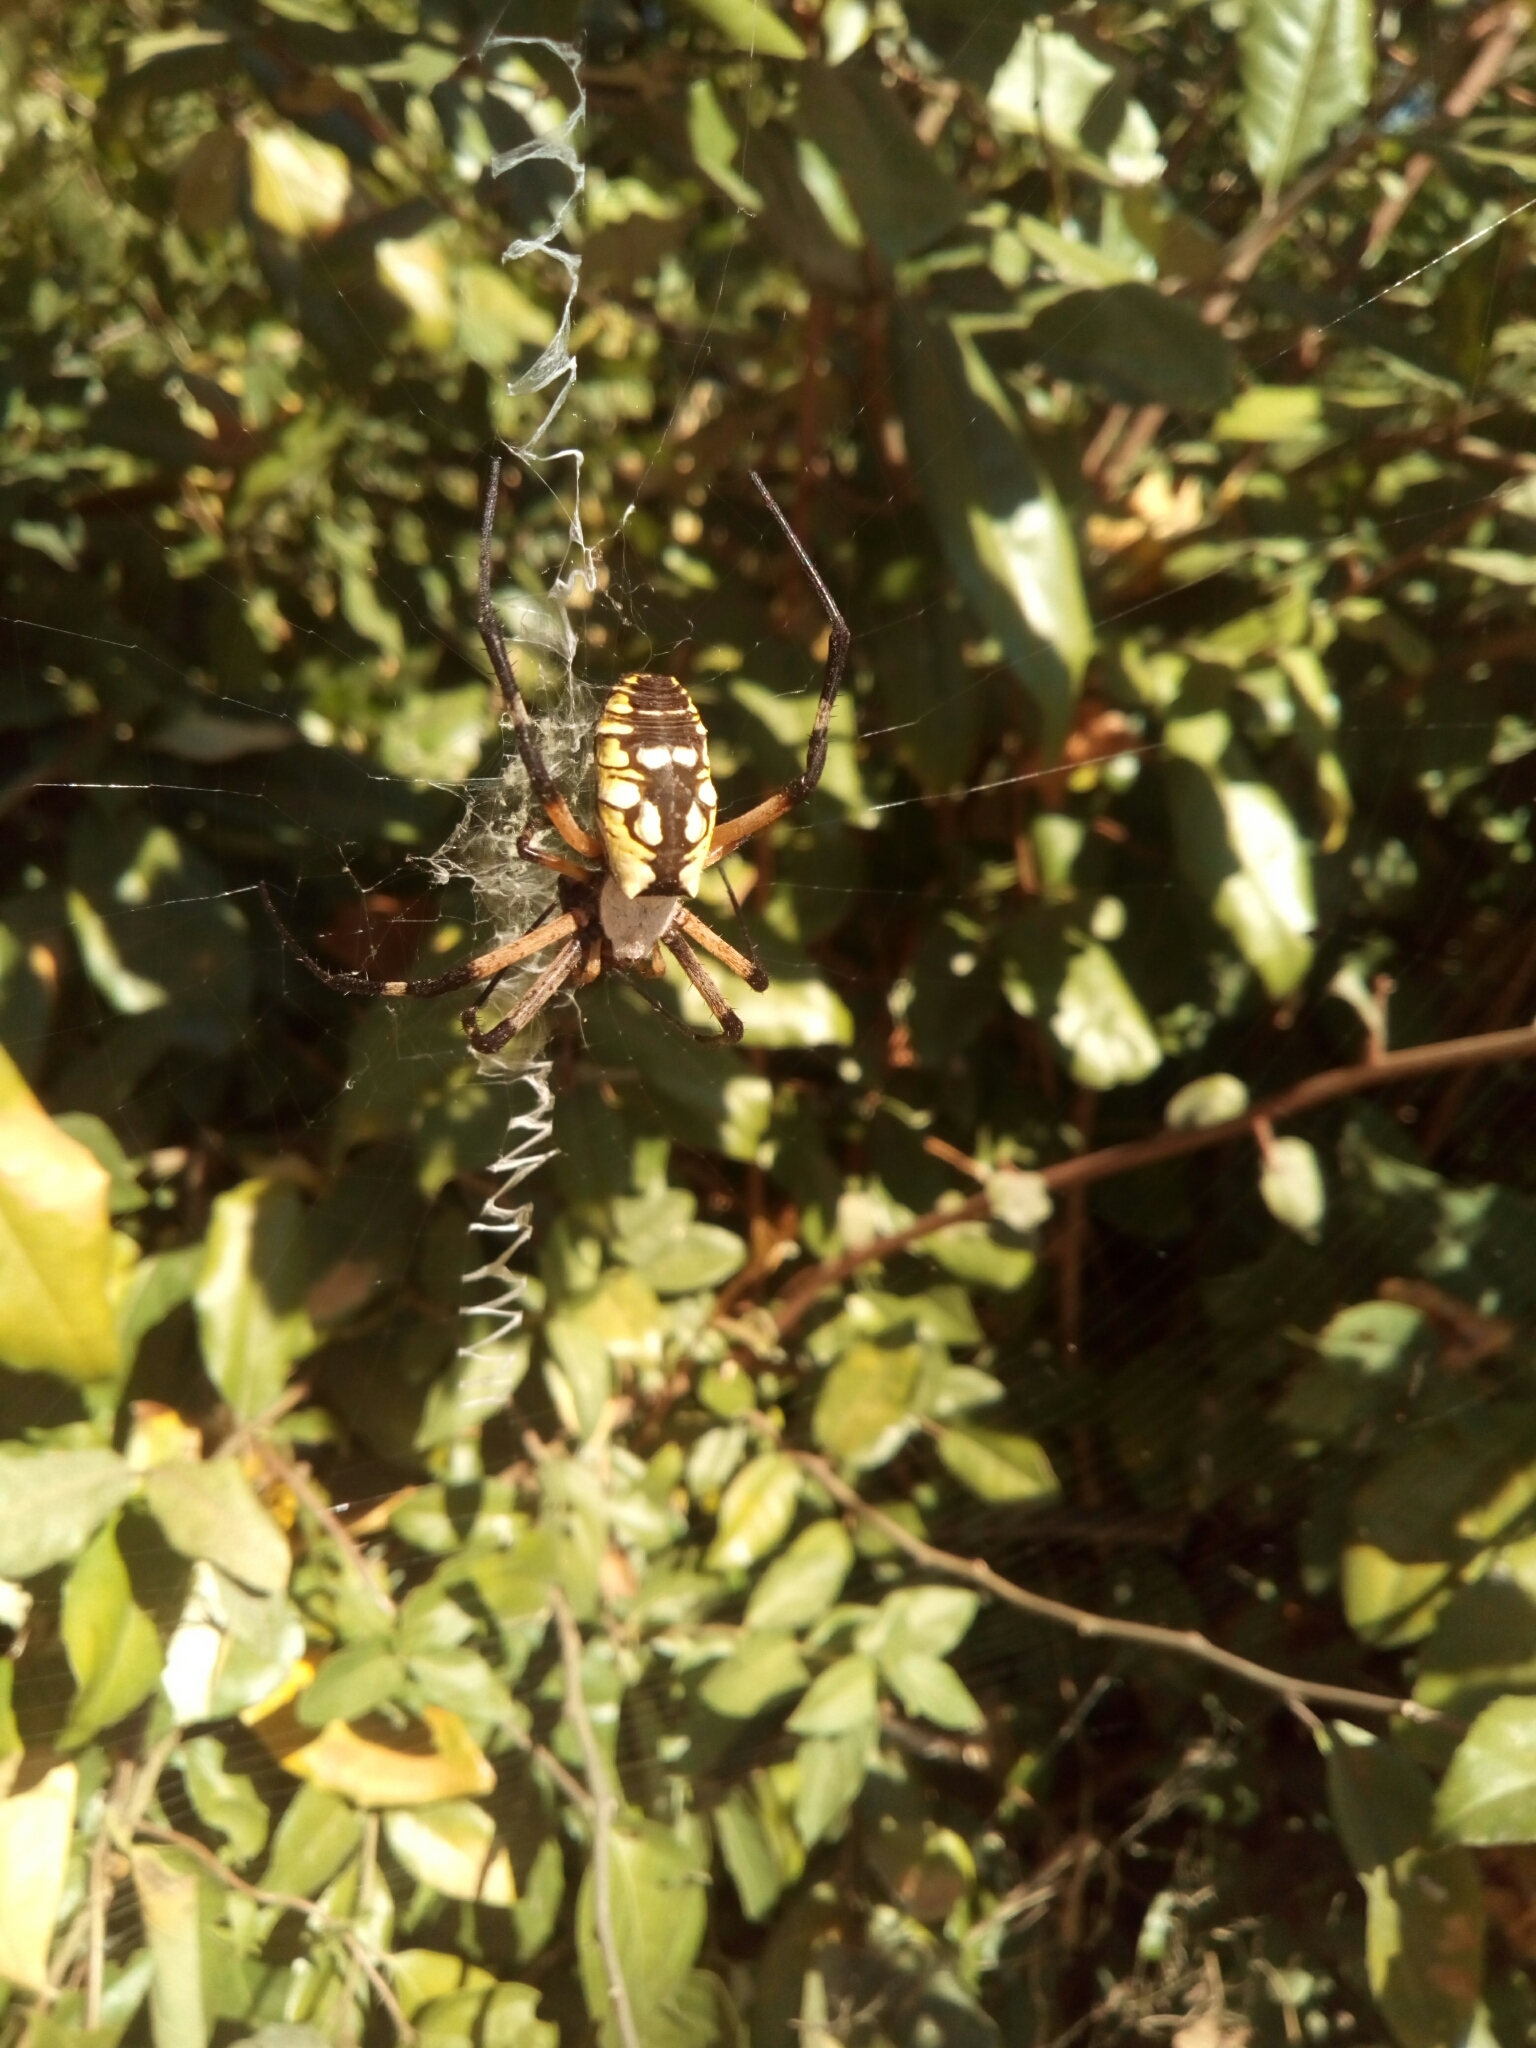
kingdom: Animalia
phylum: Arthropoda
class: Arachnida
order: Araneae
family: Araneidae
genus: Argiope
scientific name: Argiope aurantia
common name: Orb weavers
